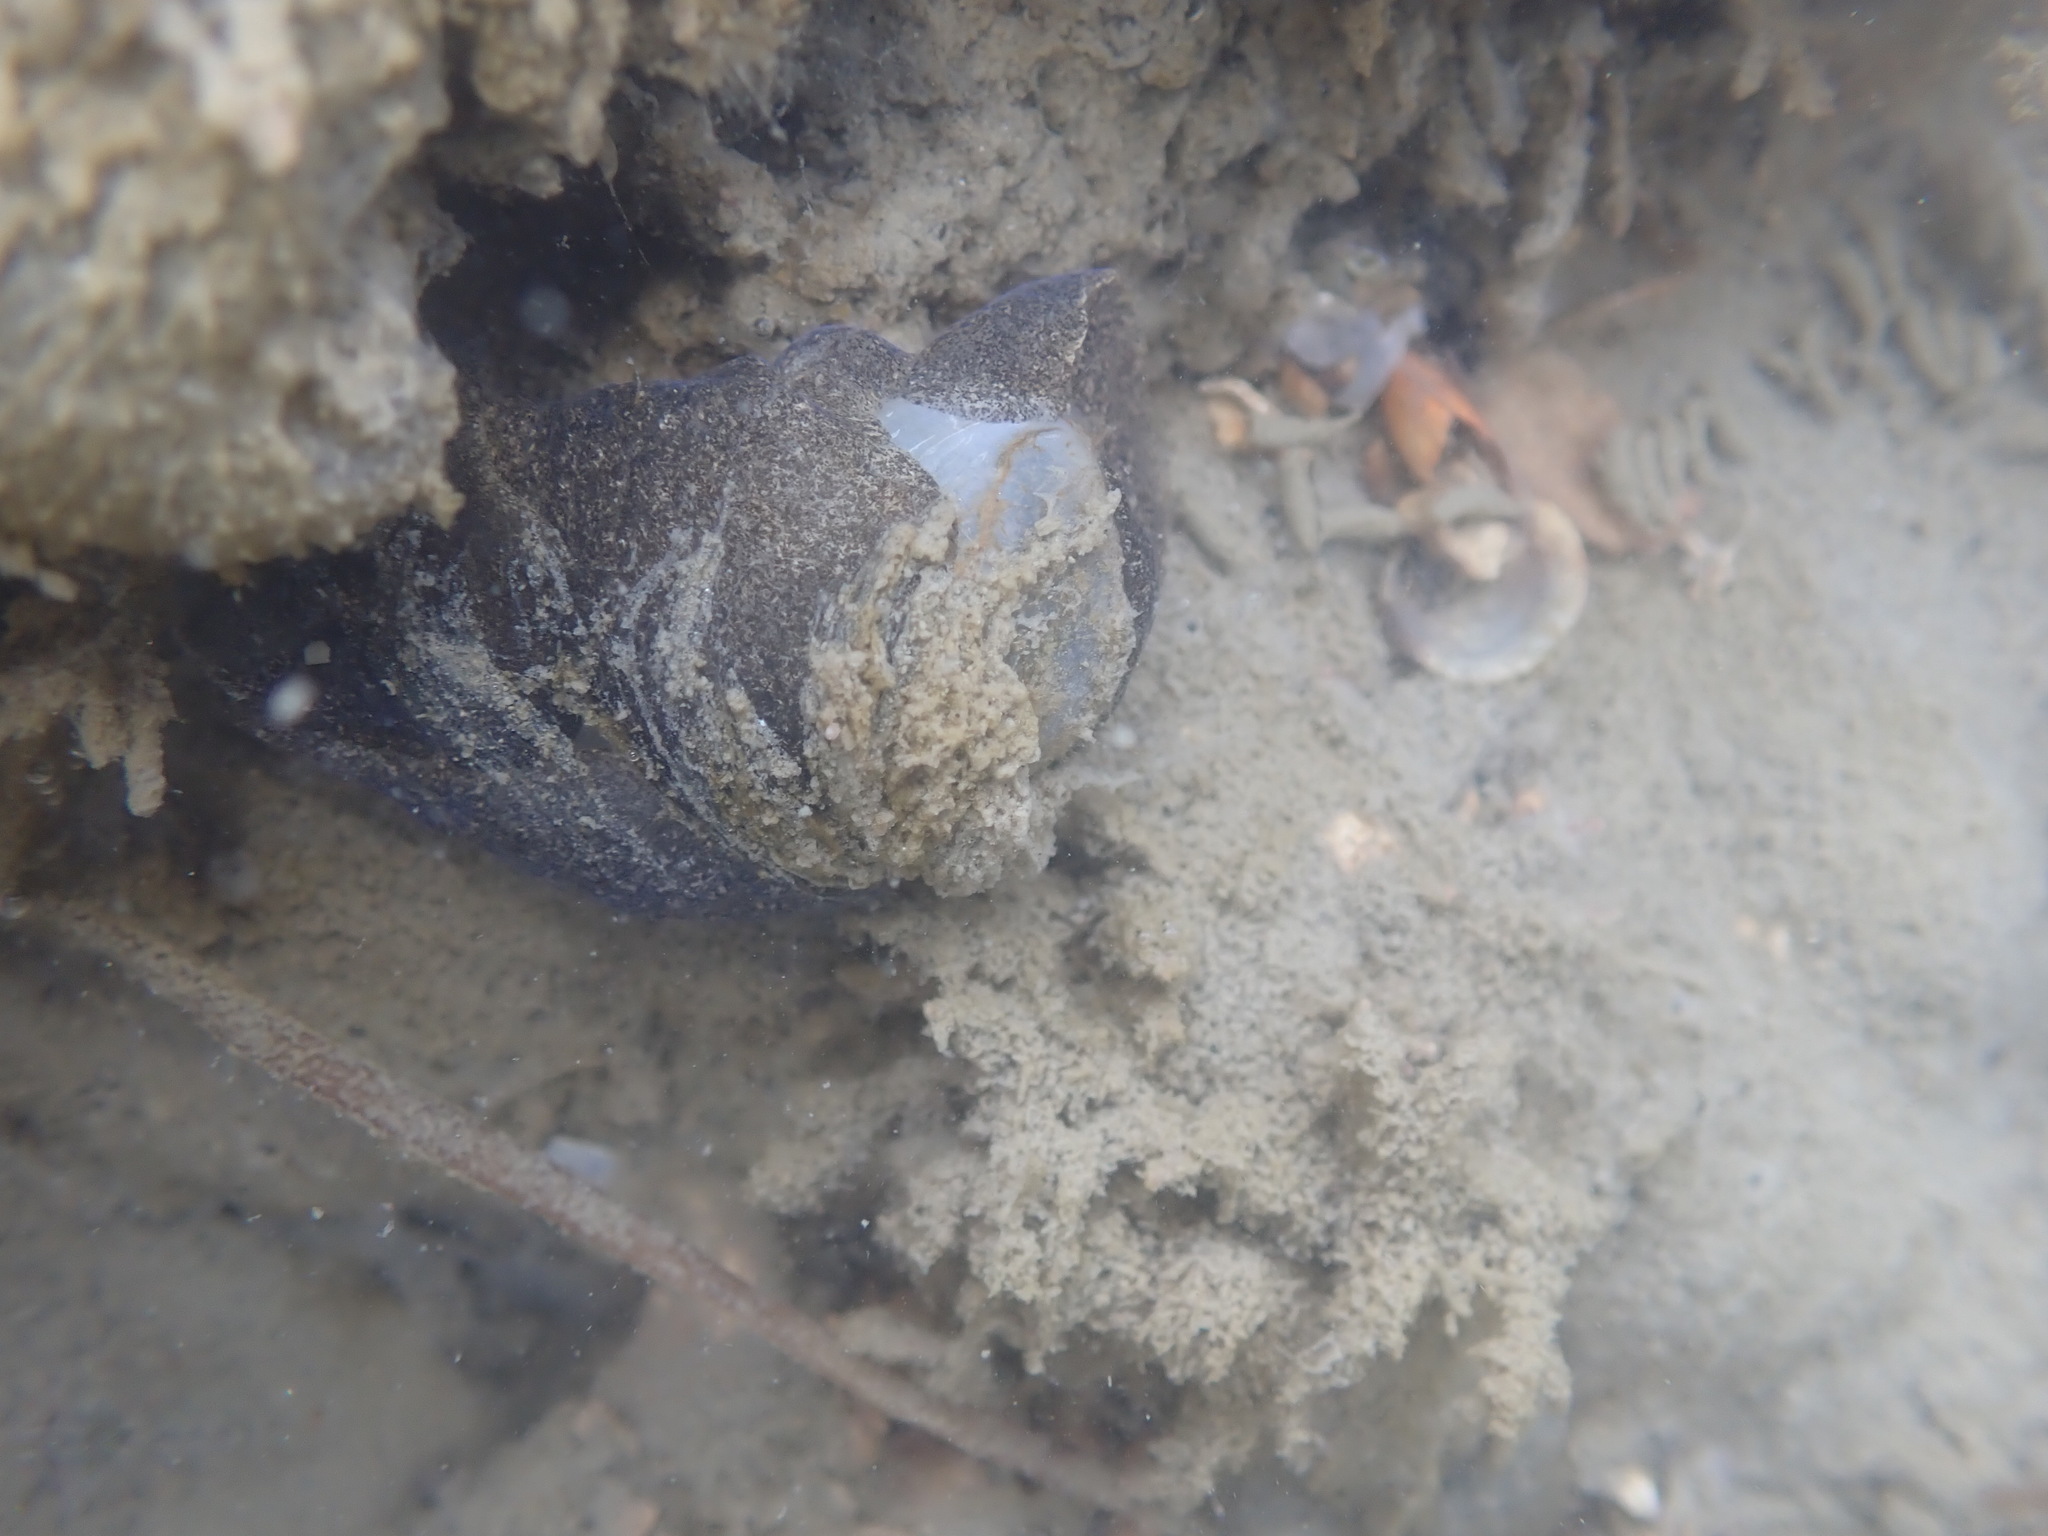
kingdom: Animalia
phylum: Mollusca
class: Gastropoda
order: Cephalaspidea
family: Haminoeidae
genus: Papawera
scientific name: Papawera zelandiae
